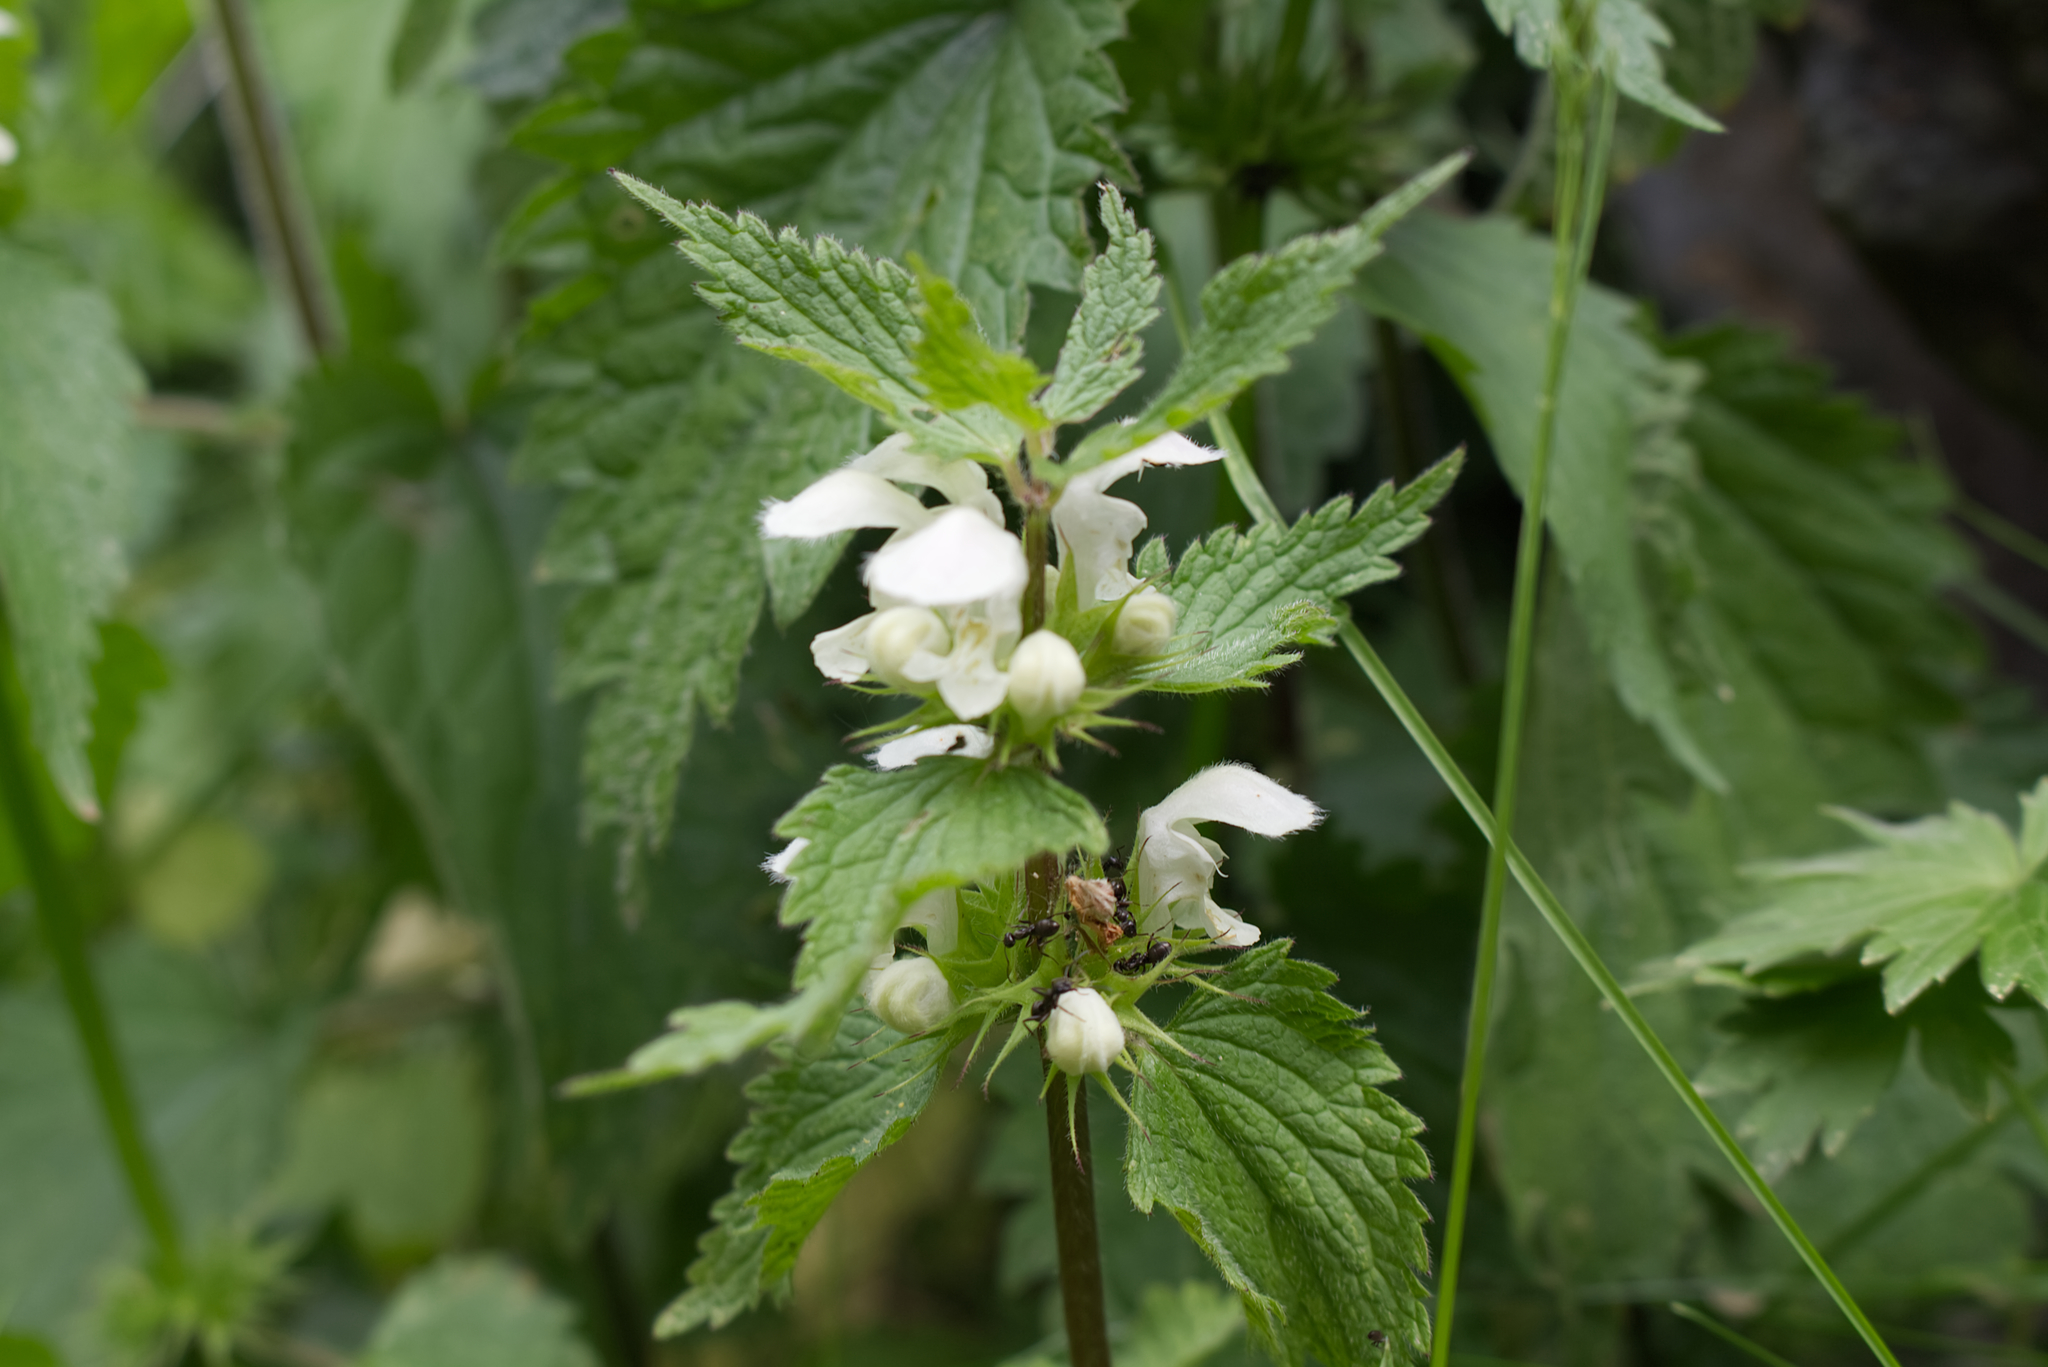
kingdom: Plantae
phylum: Tracheophyta
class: Magnoliopsida
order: Lamiales
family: Lamiaceae
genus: Lamium
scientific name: Lamium album
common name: White dead-nettle
